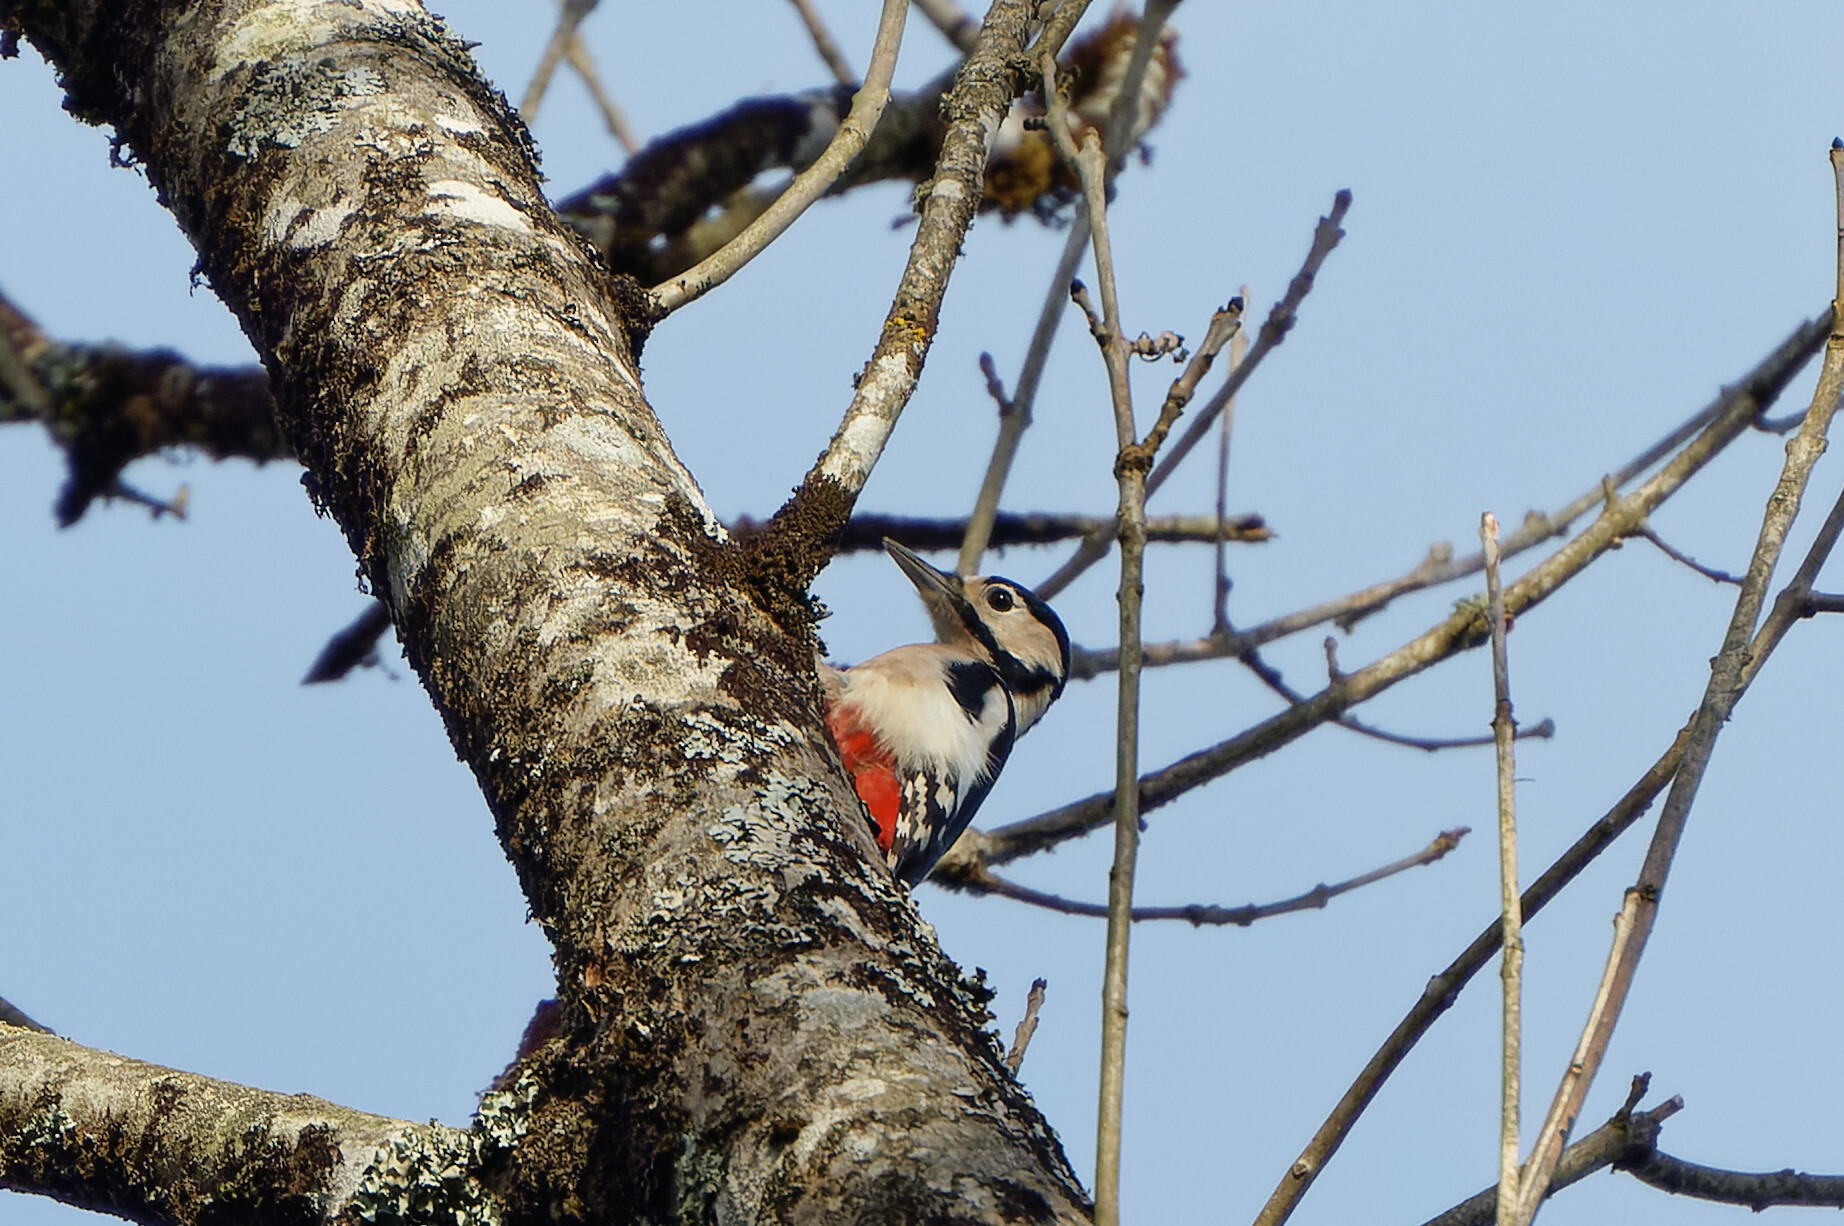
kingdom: Animalia
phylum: Chordata
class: Aves
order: Piciformes
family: Picidae
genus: Dendrocopos
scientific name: Dendrocopos major
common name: Great spotted woodpecker
